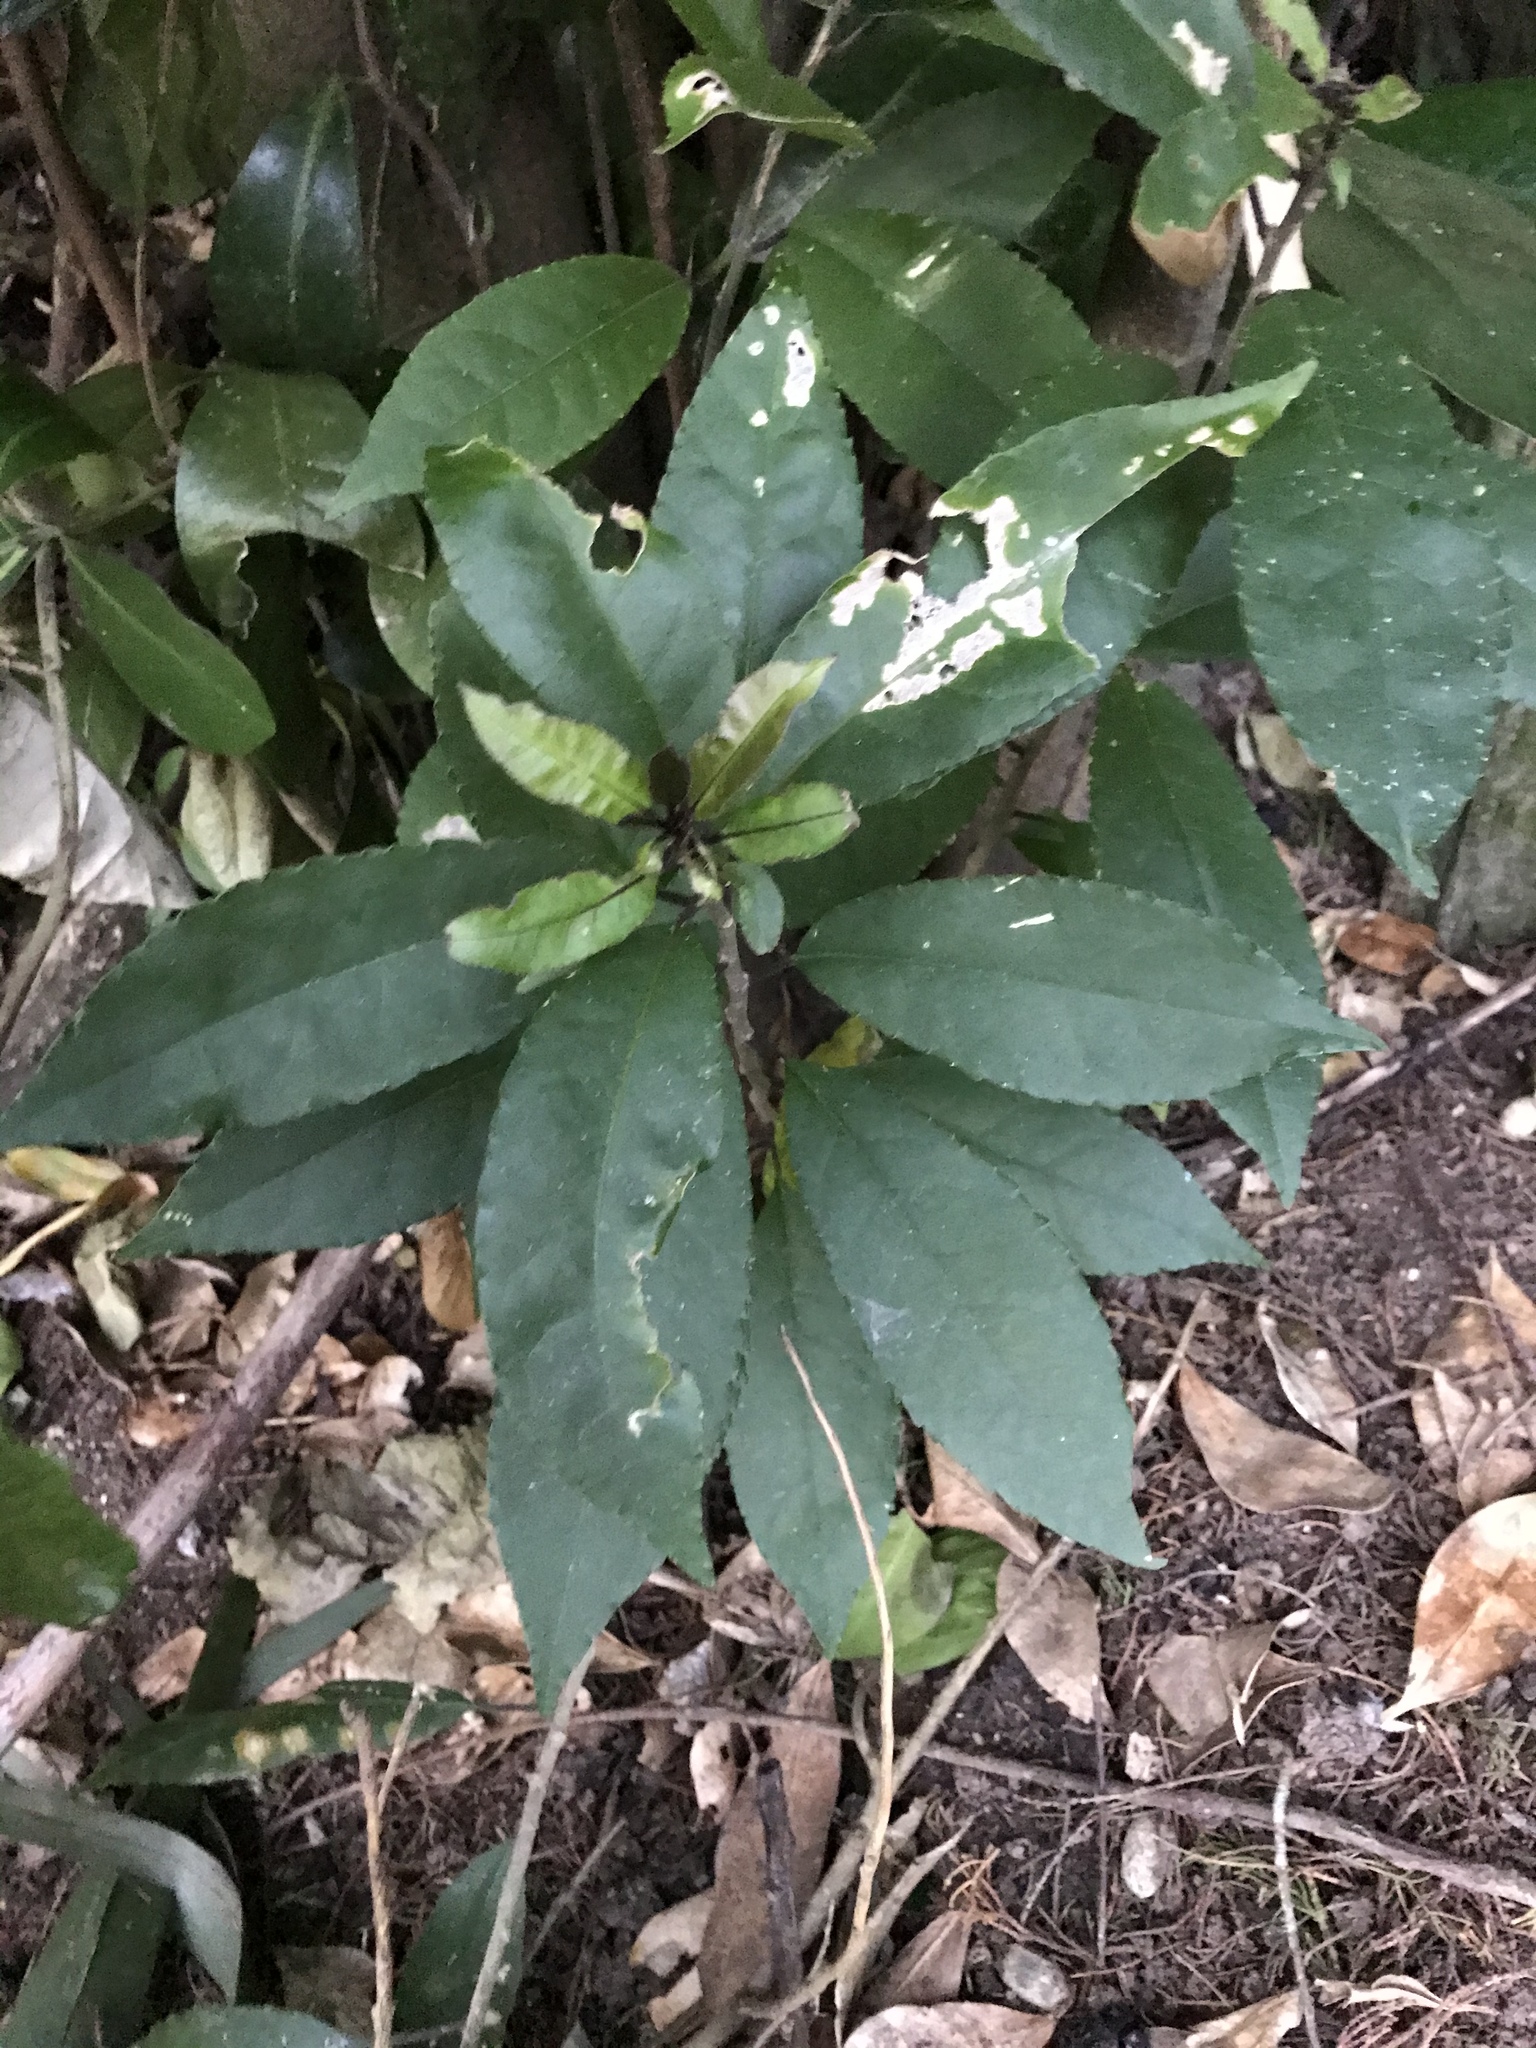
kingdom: Plantae
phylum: Tracheophyta
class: Magnoliopsida
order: Malpighiales
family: Violaceae
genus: Melicytus
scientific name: Melicytus ramiflorus
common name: Mahoe
